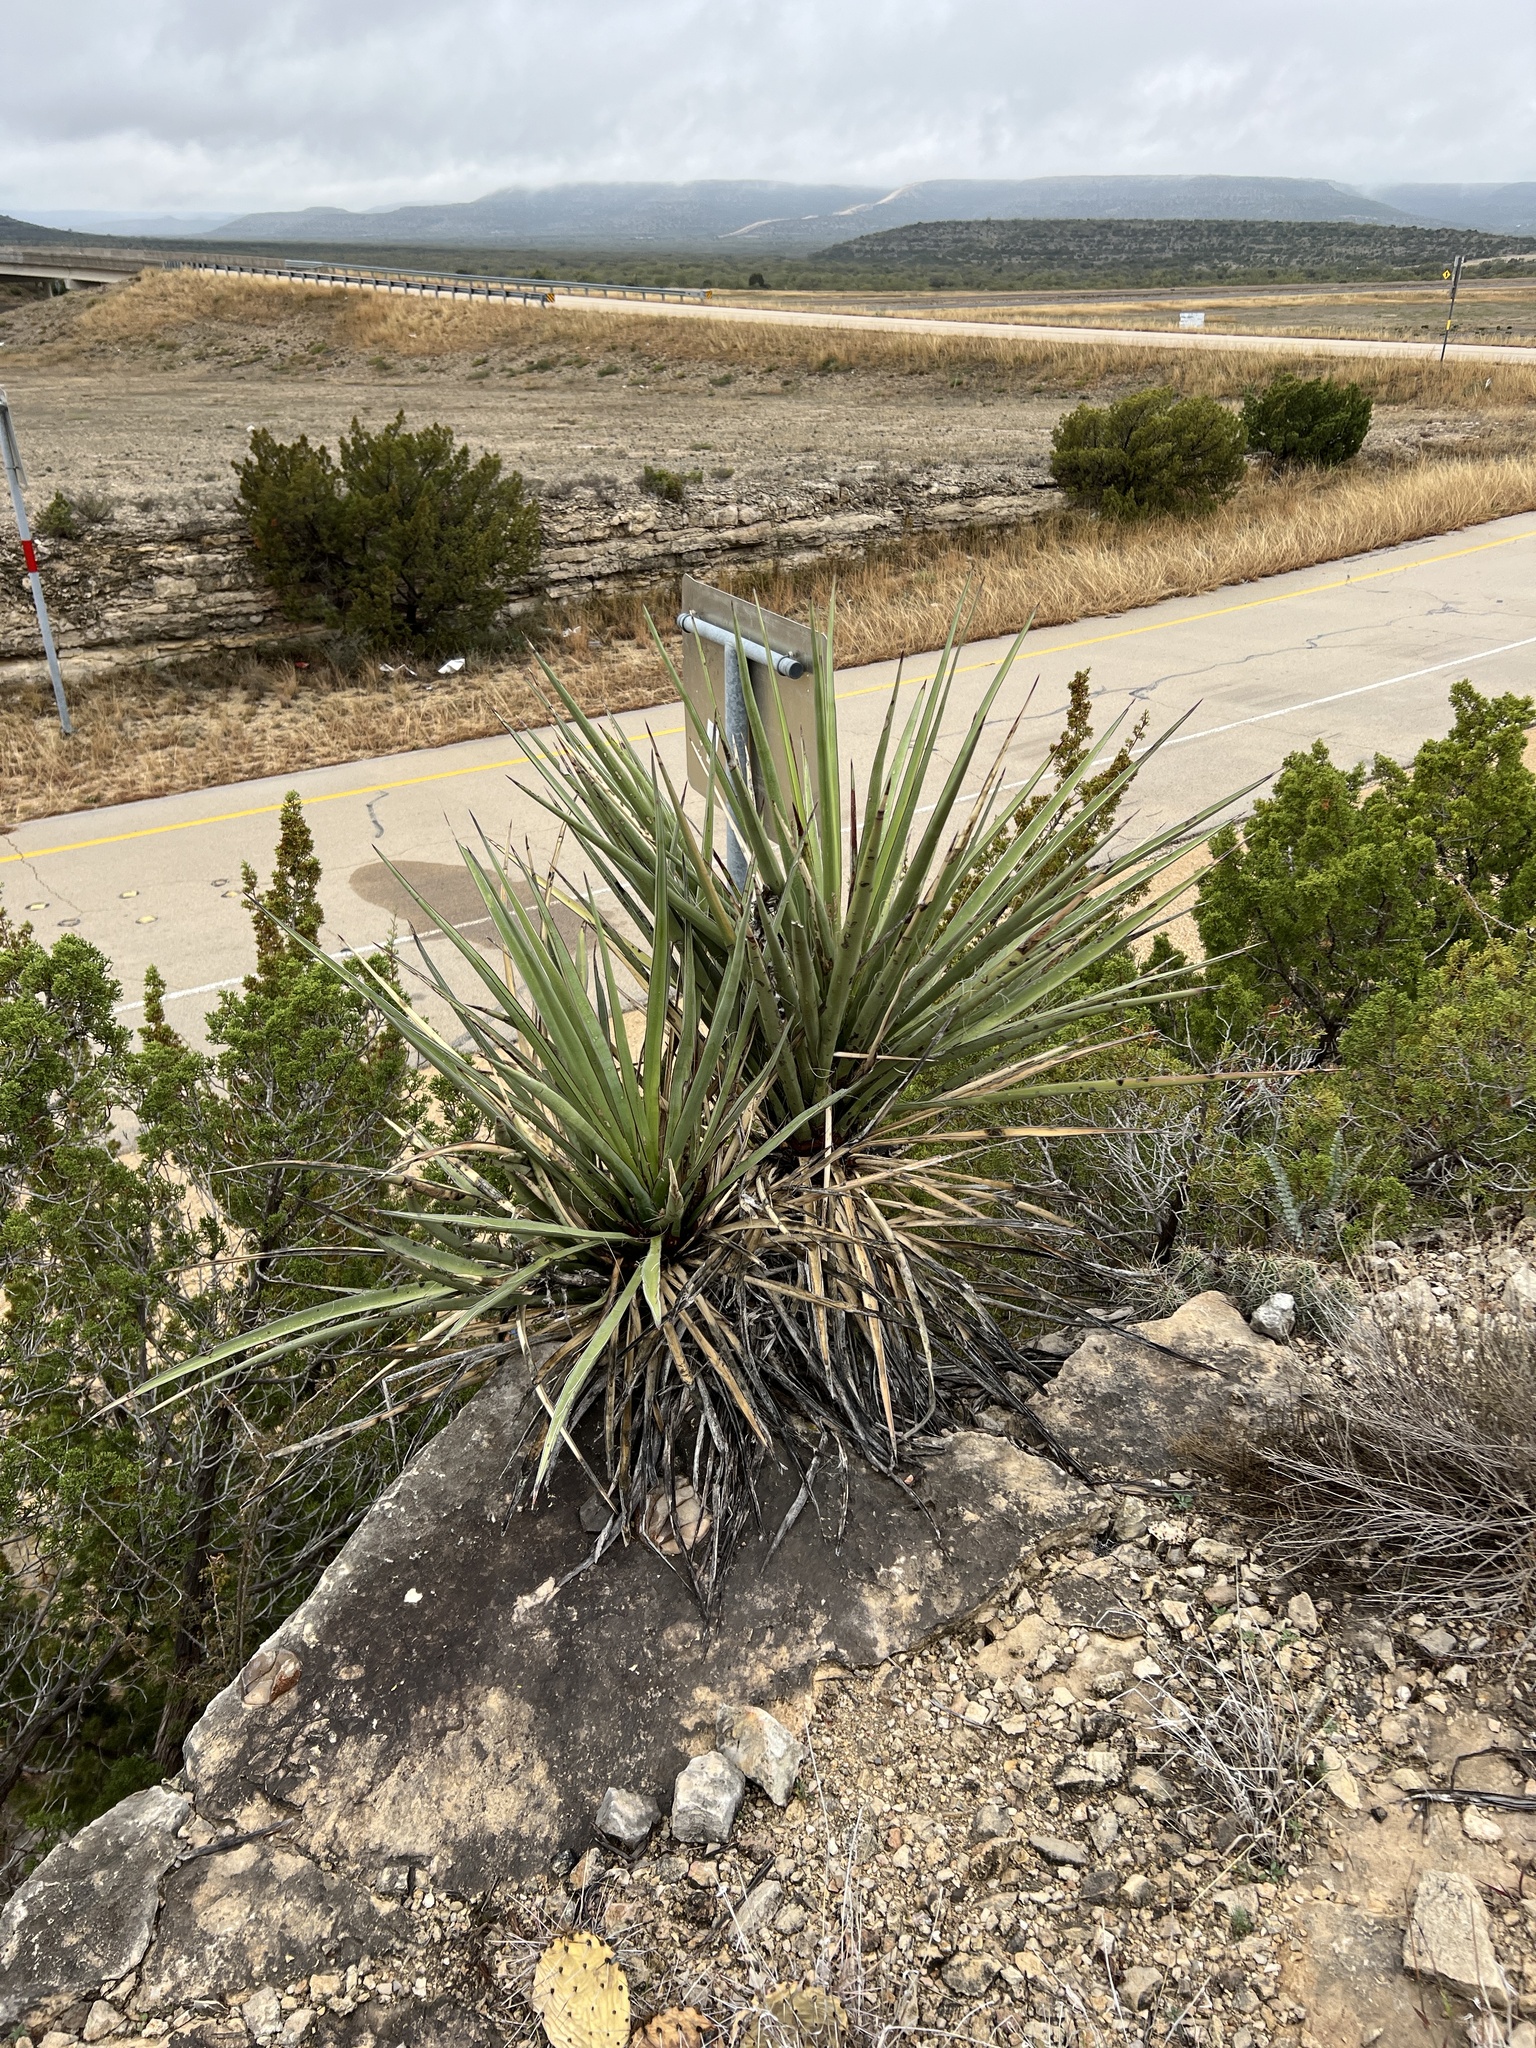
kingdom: Plantae
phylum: Tracheophyta
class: Liliopsida
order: Asparagales
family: Asparagaceae
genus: Yucca
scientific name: Yucca treculiana
